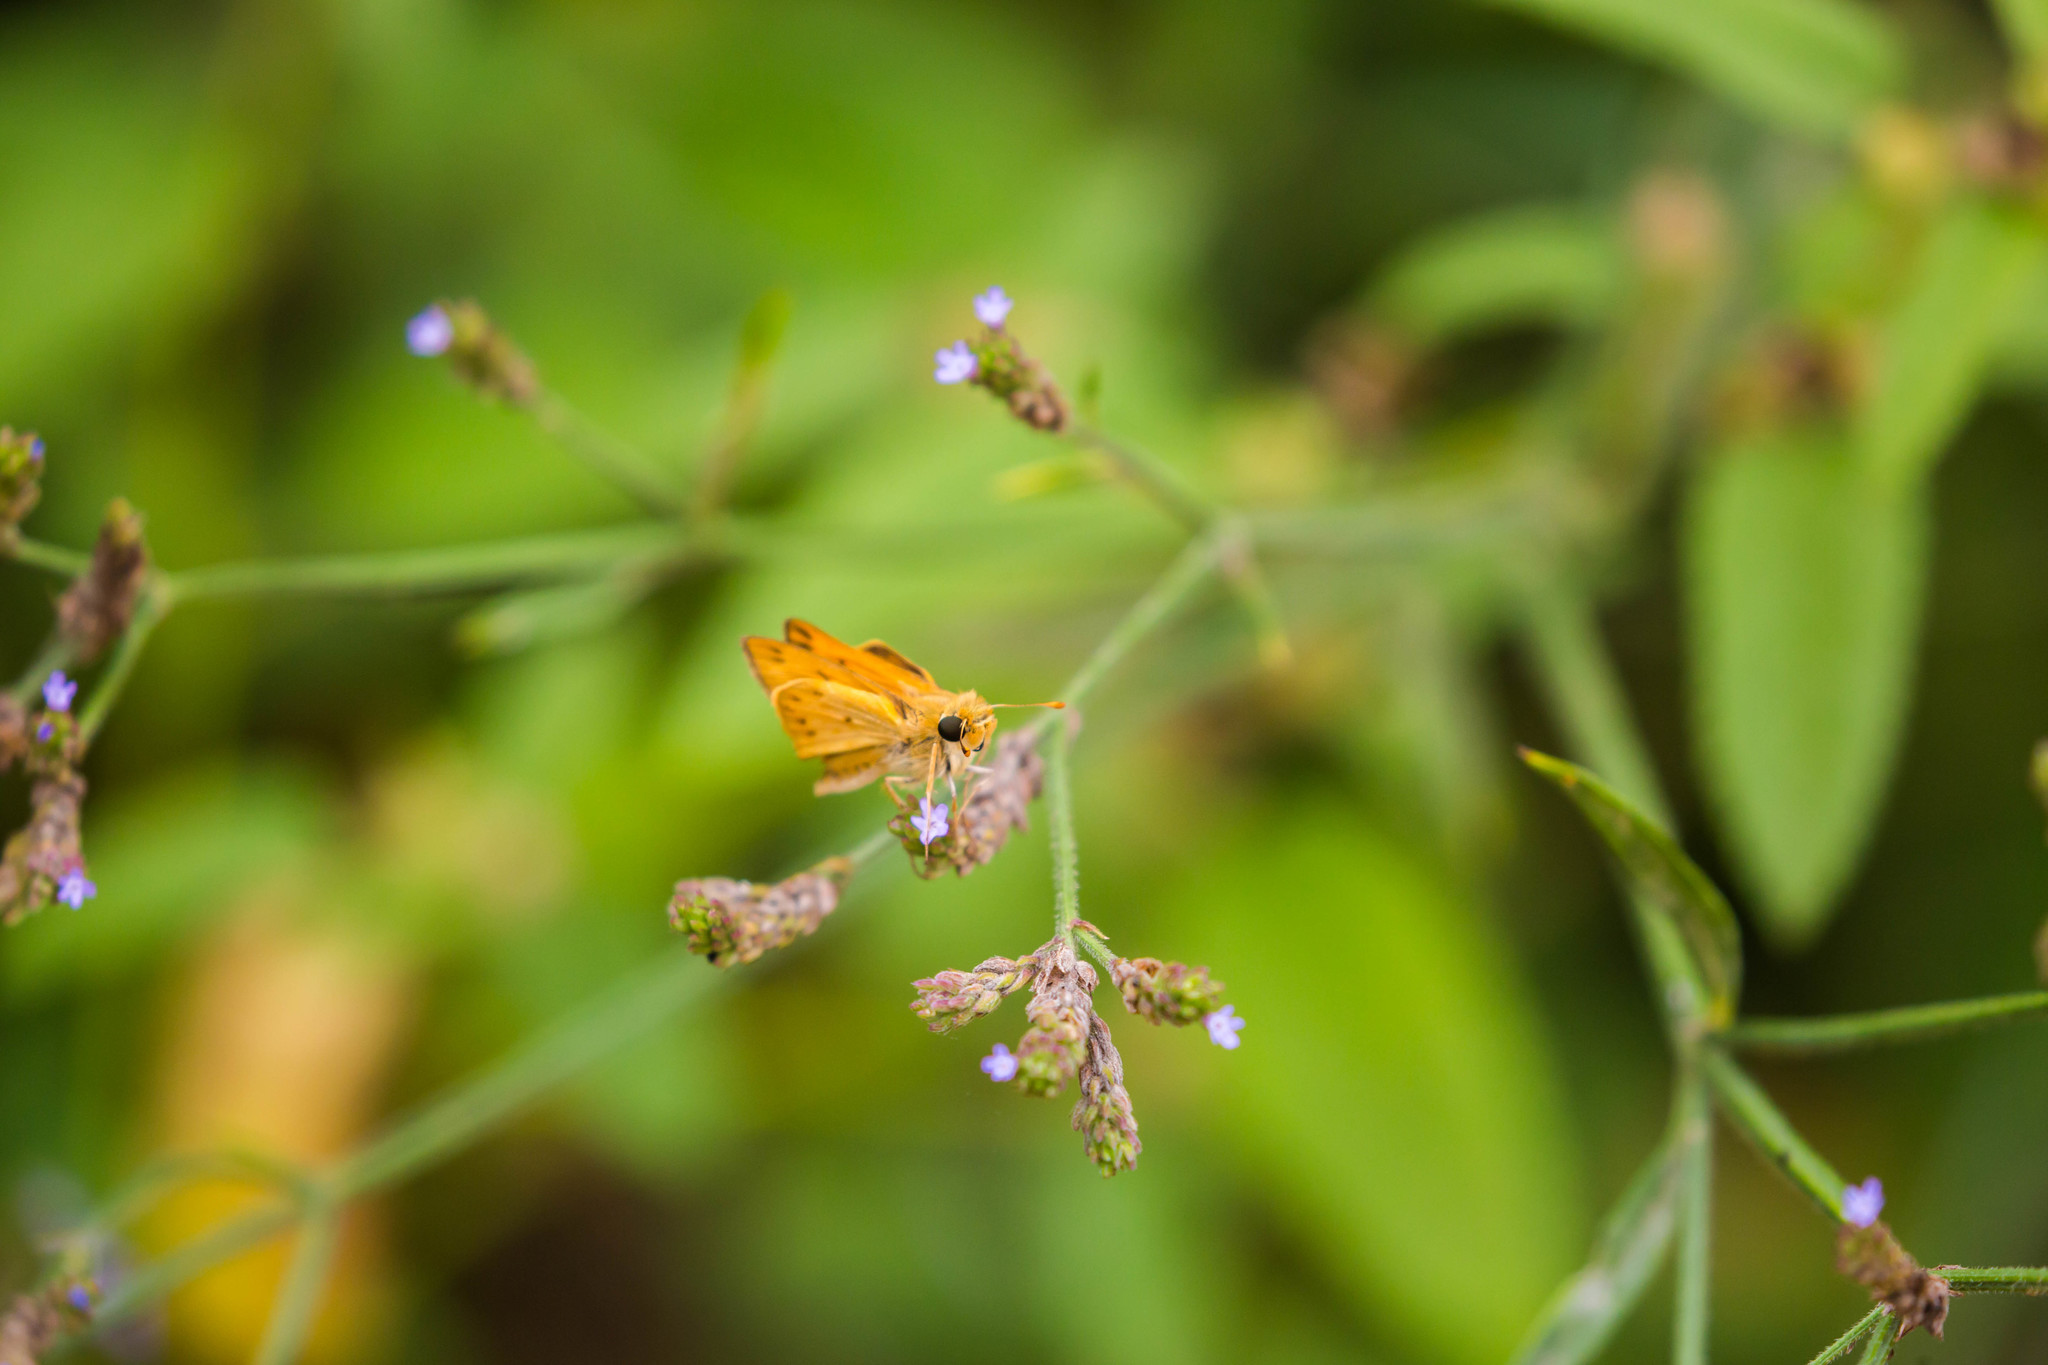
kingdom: Animalia
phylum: Arthropoda
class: Insecta
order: Lepidoptera
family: Hesperiidae
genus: Hylephila
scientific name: Hylephila phyleus
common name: Fiery skipper
